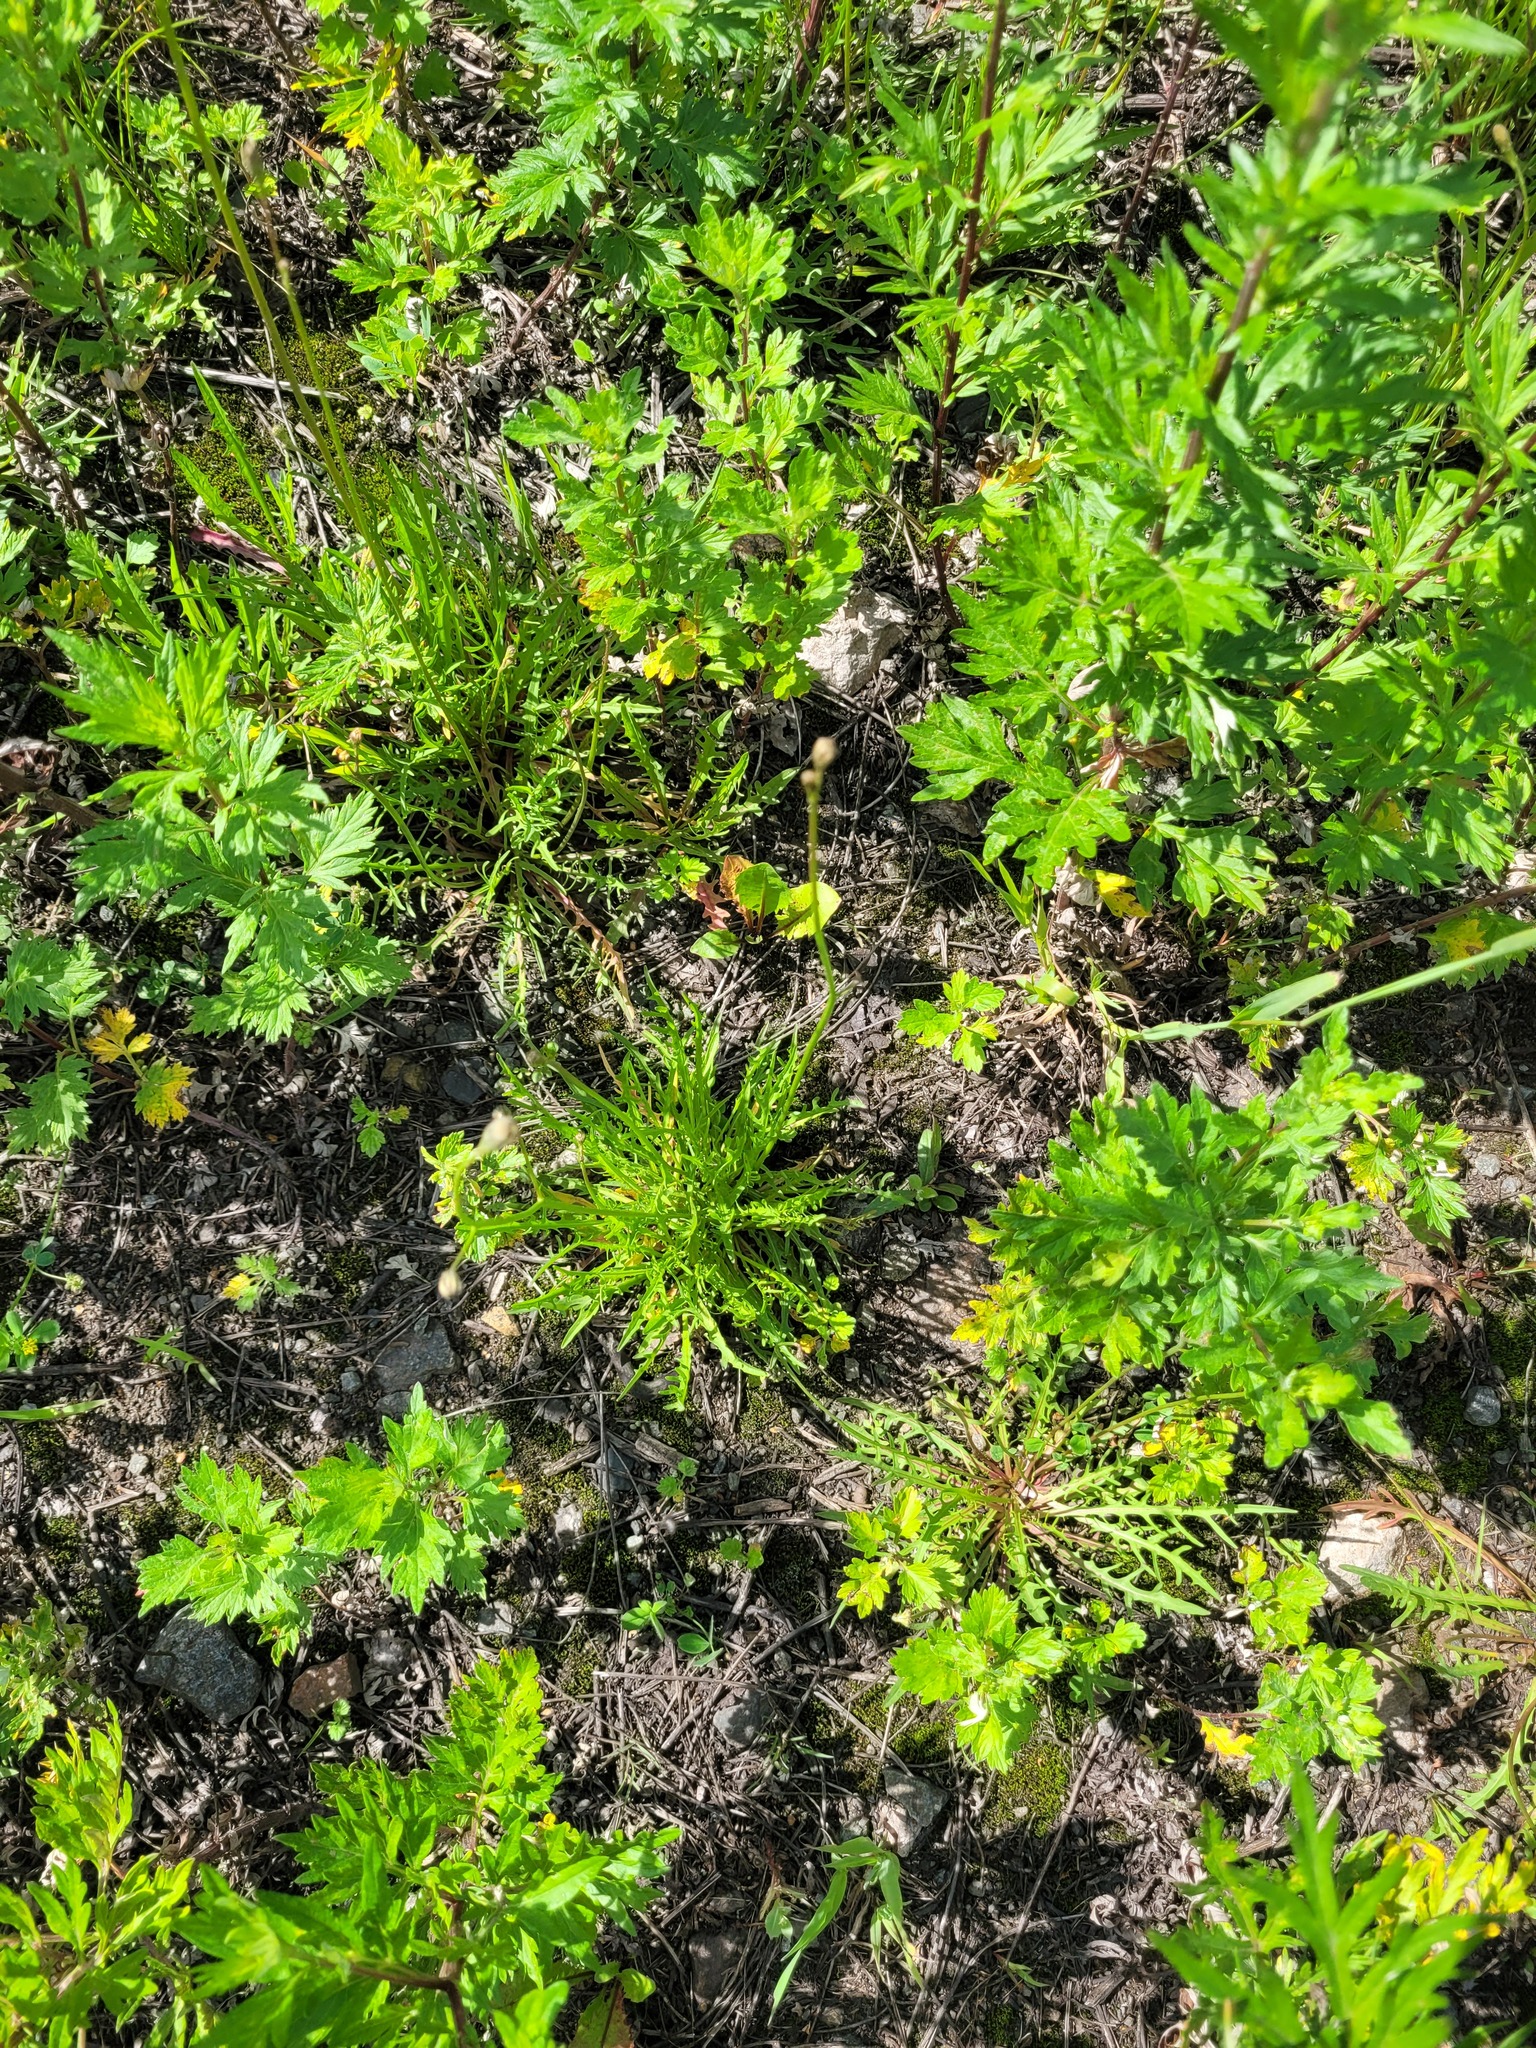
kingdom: Plantae
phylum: Tracheophyta
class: Magnoliopsida
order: Asterales
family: Asteraceae
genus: Scorzoneroides
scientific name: Scorzoneroides autumnalis
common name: Autumn hawkbit
